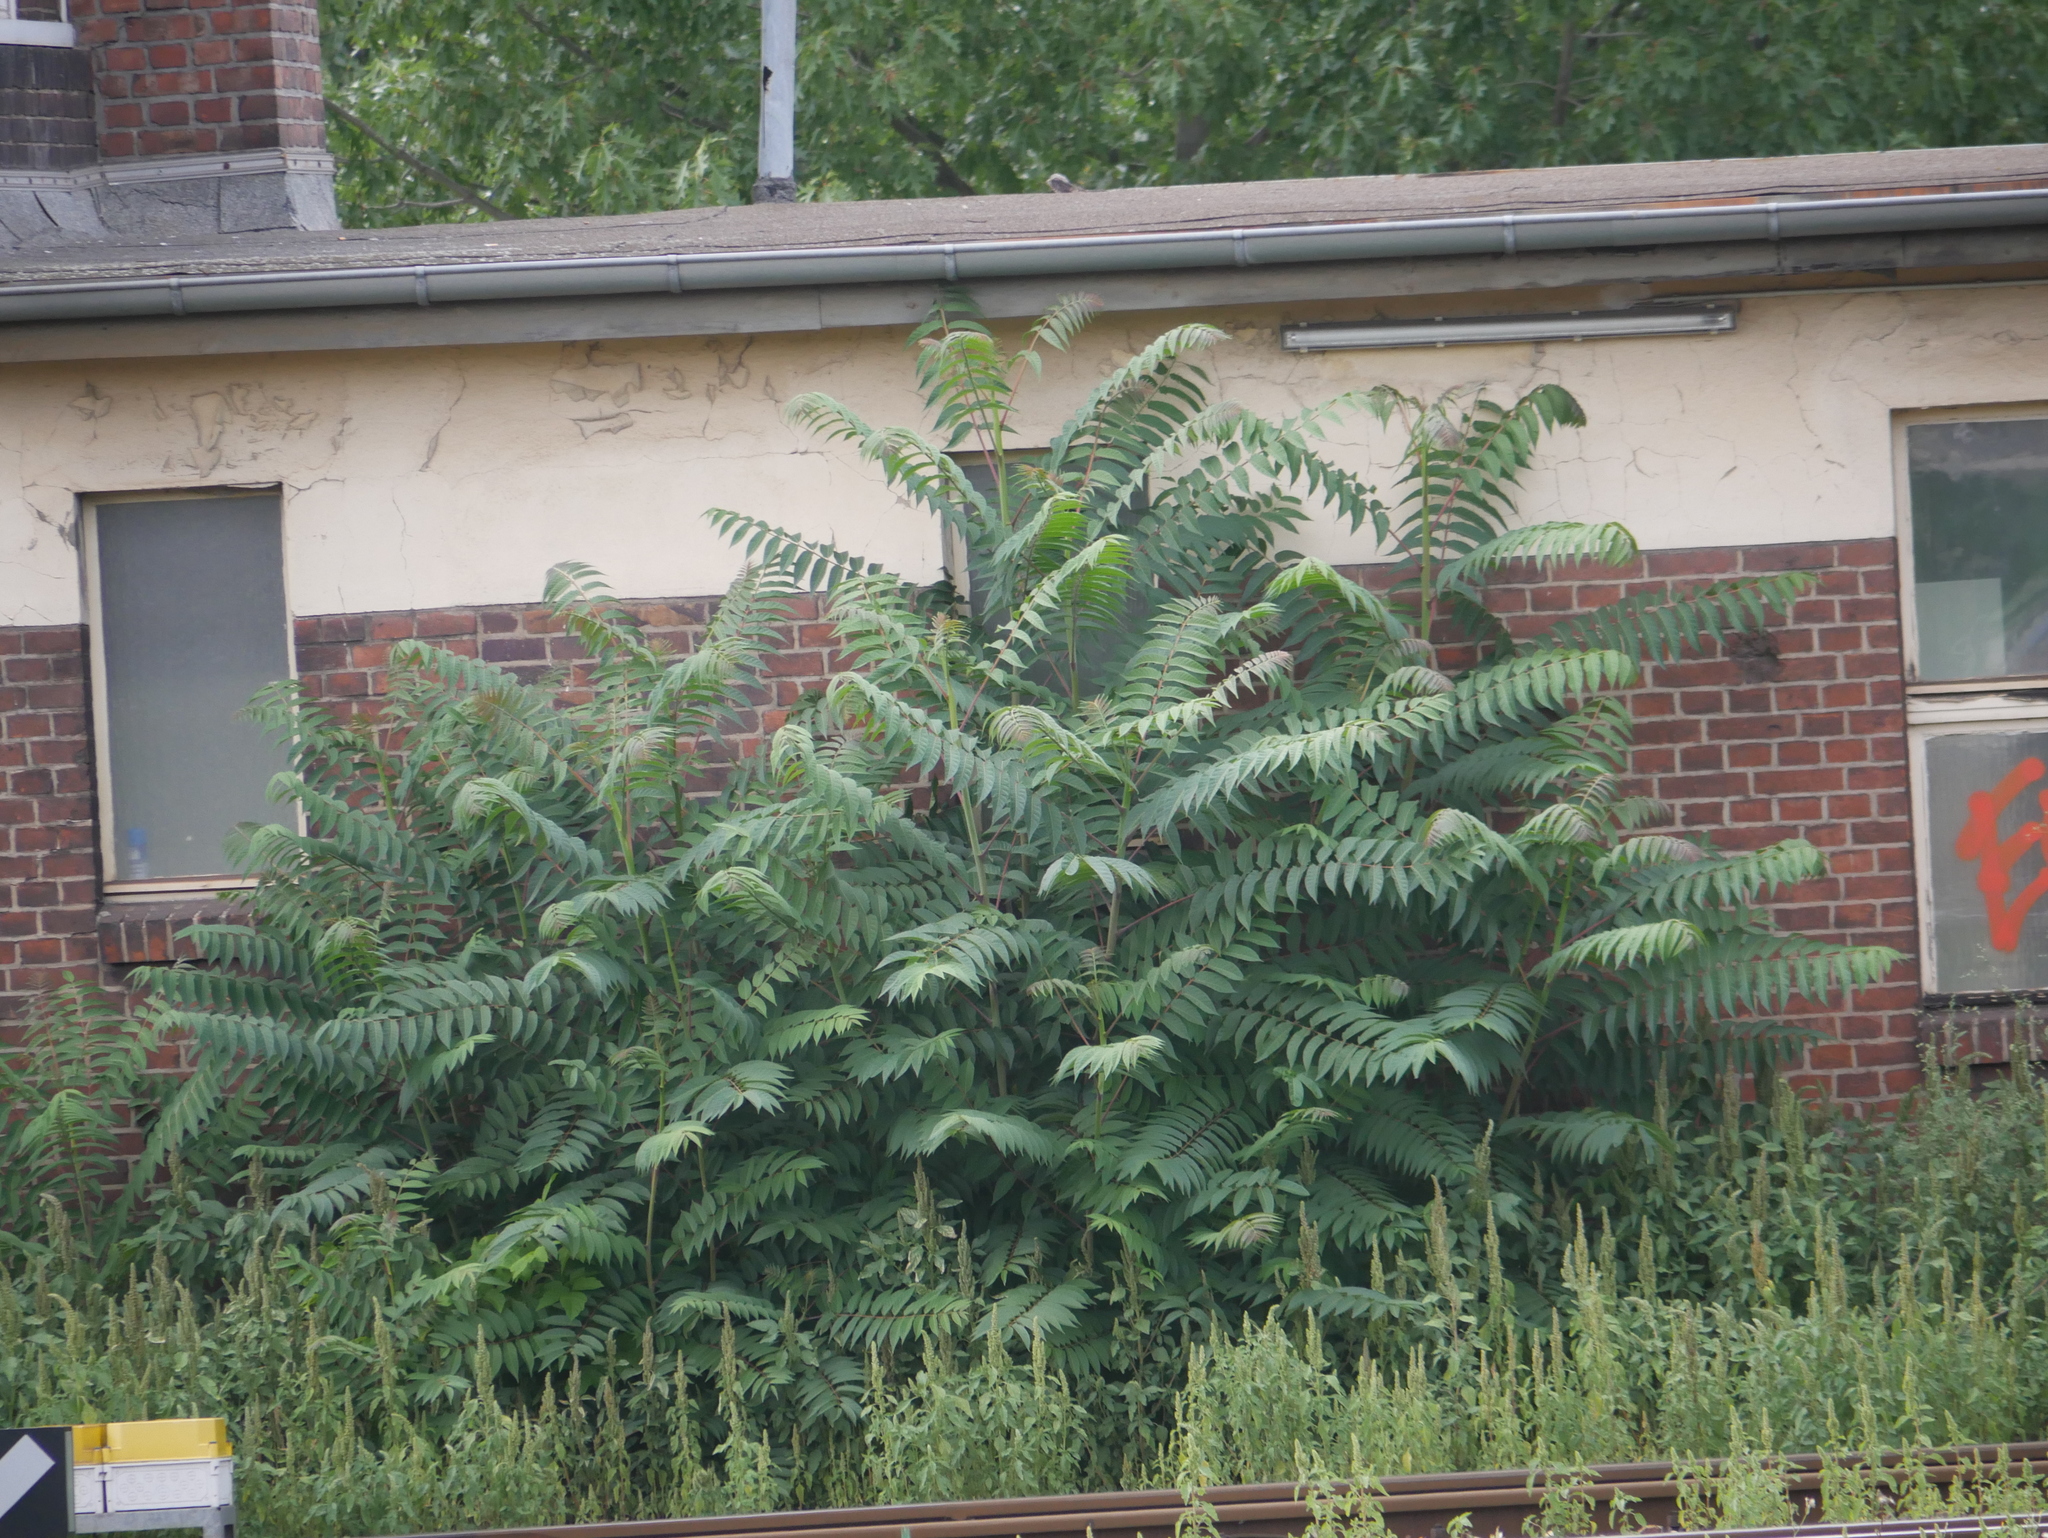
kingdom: Plantae
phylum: Tracheophyta
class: Magnoliopsida
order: Sapindales
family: Simaroubaceae
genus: Ailanthus
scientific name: Ailanthus altissima
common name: Tree-of-heaven
